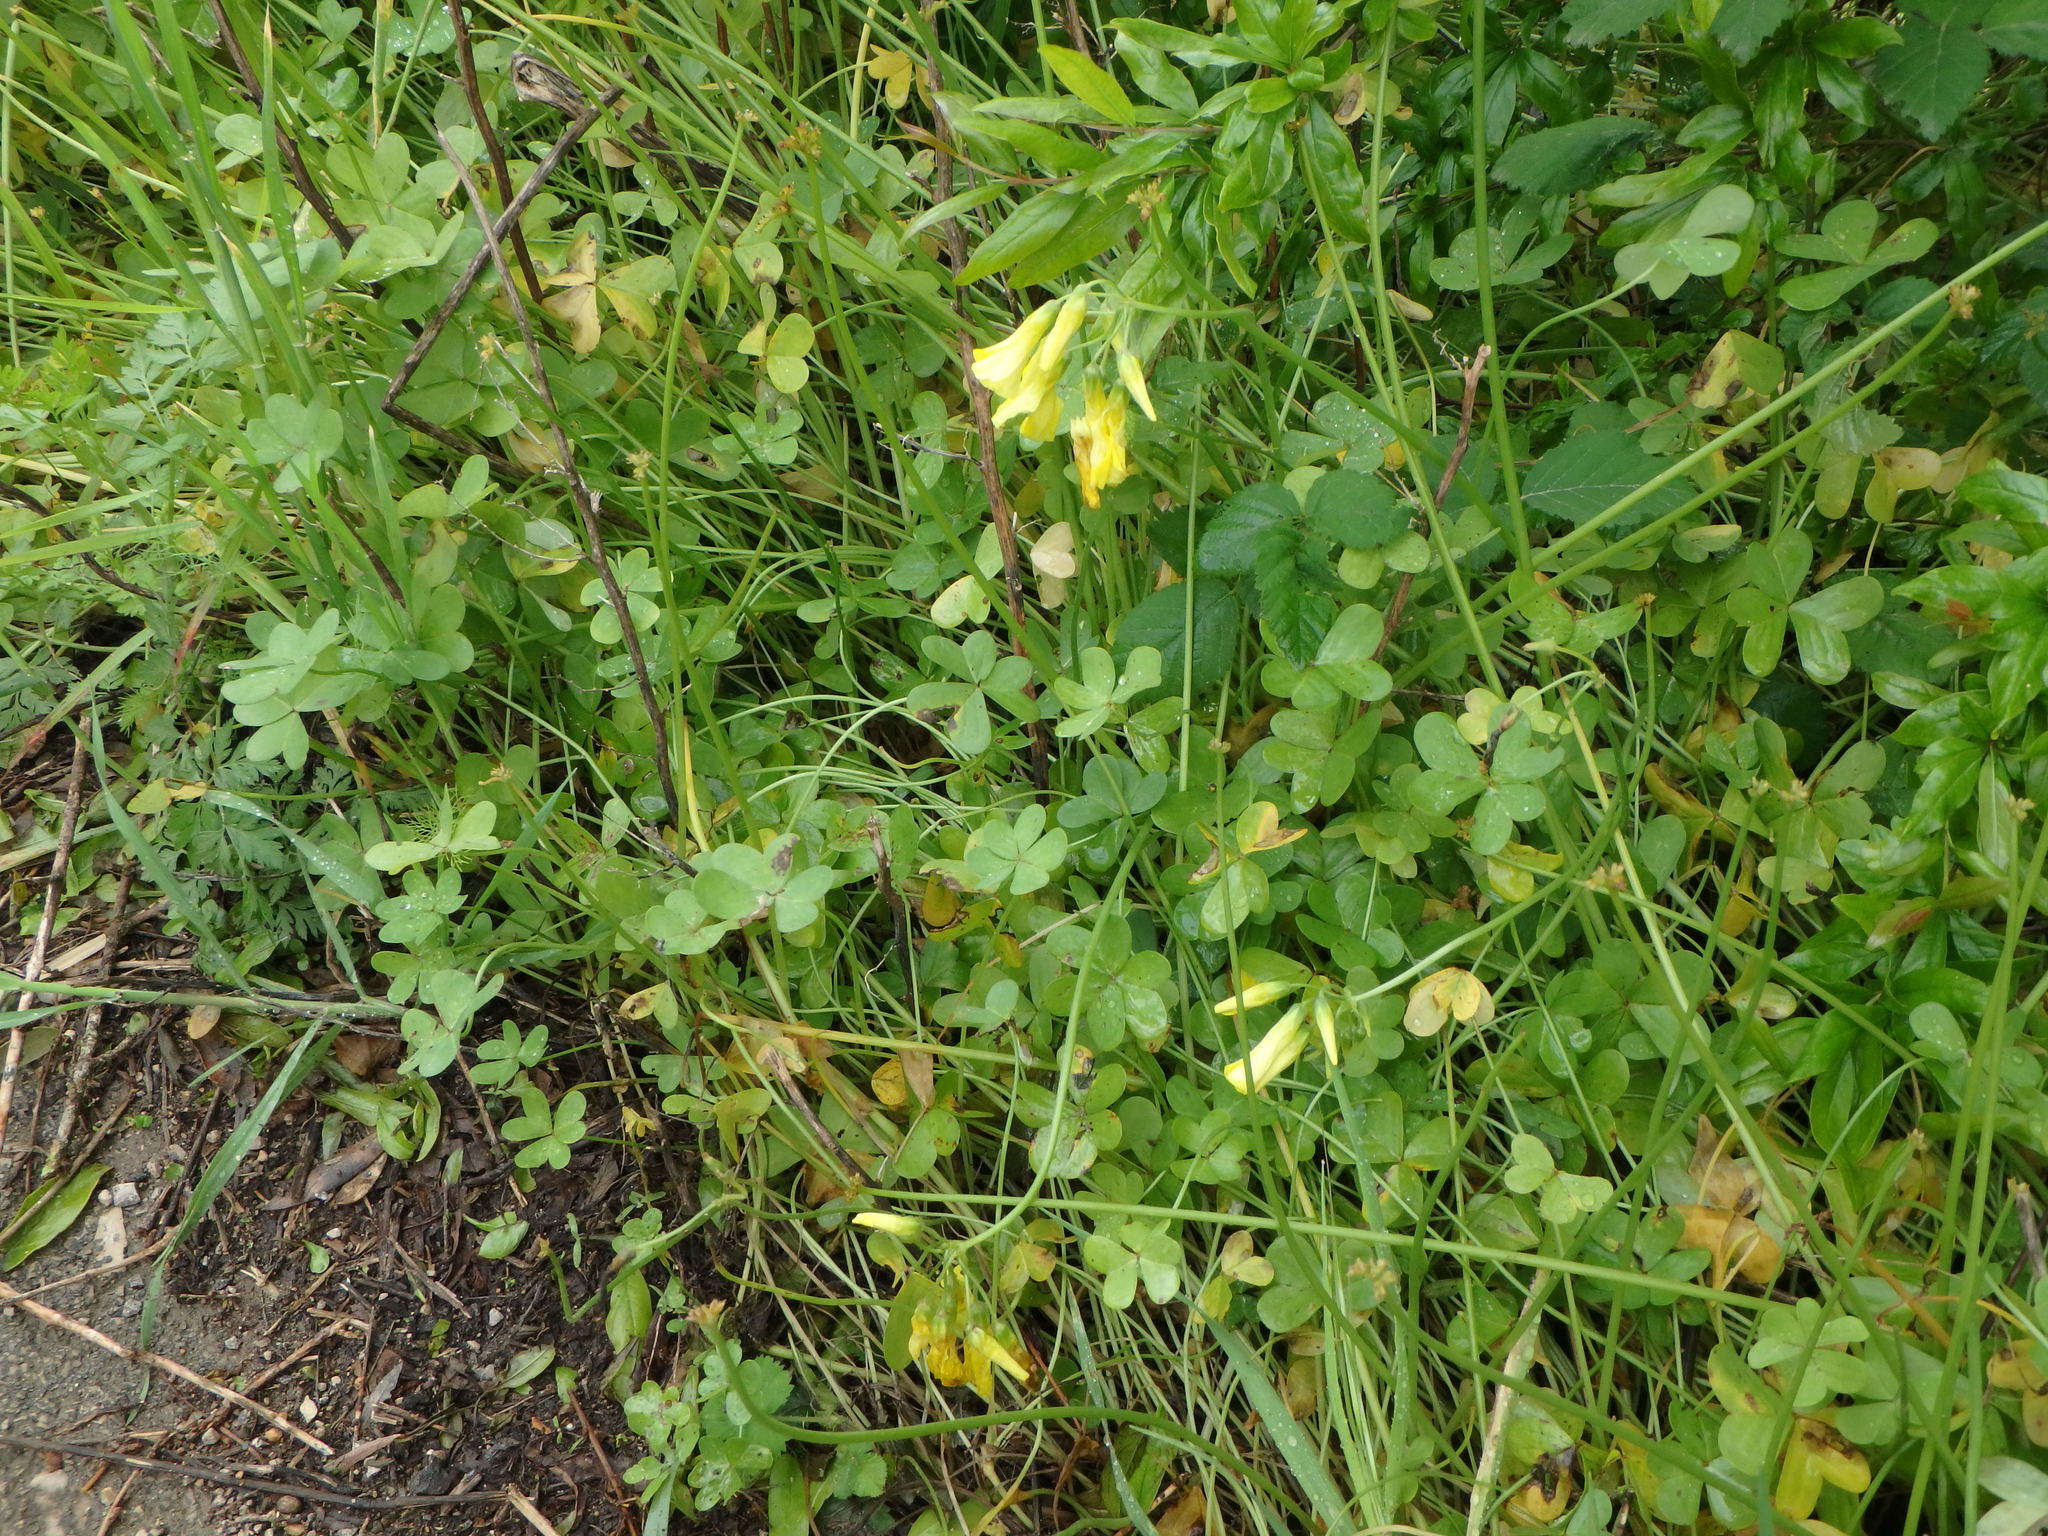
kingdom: Plantae
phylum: Tracheophyta
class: Magnoliopsida
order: Oxalidales
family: Oxalidaceae
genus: Oxalis
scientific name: Oxalis pes-caprae
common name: Bermuda-buttercup
